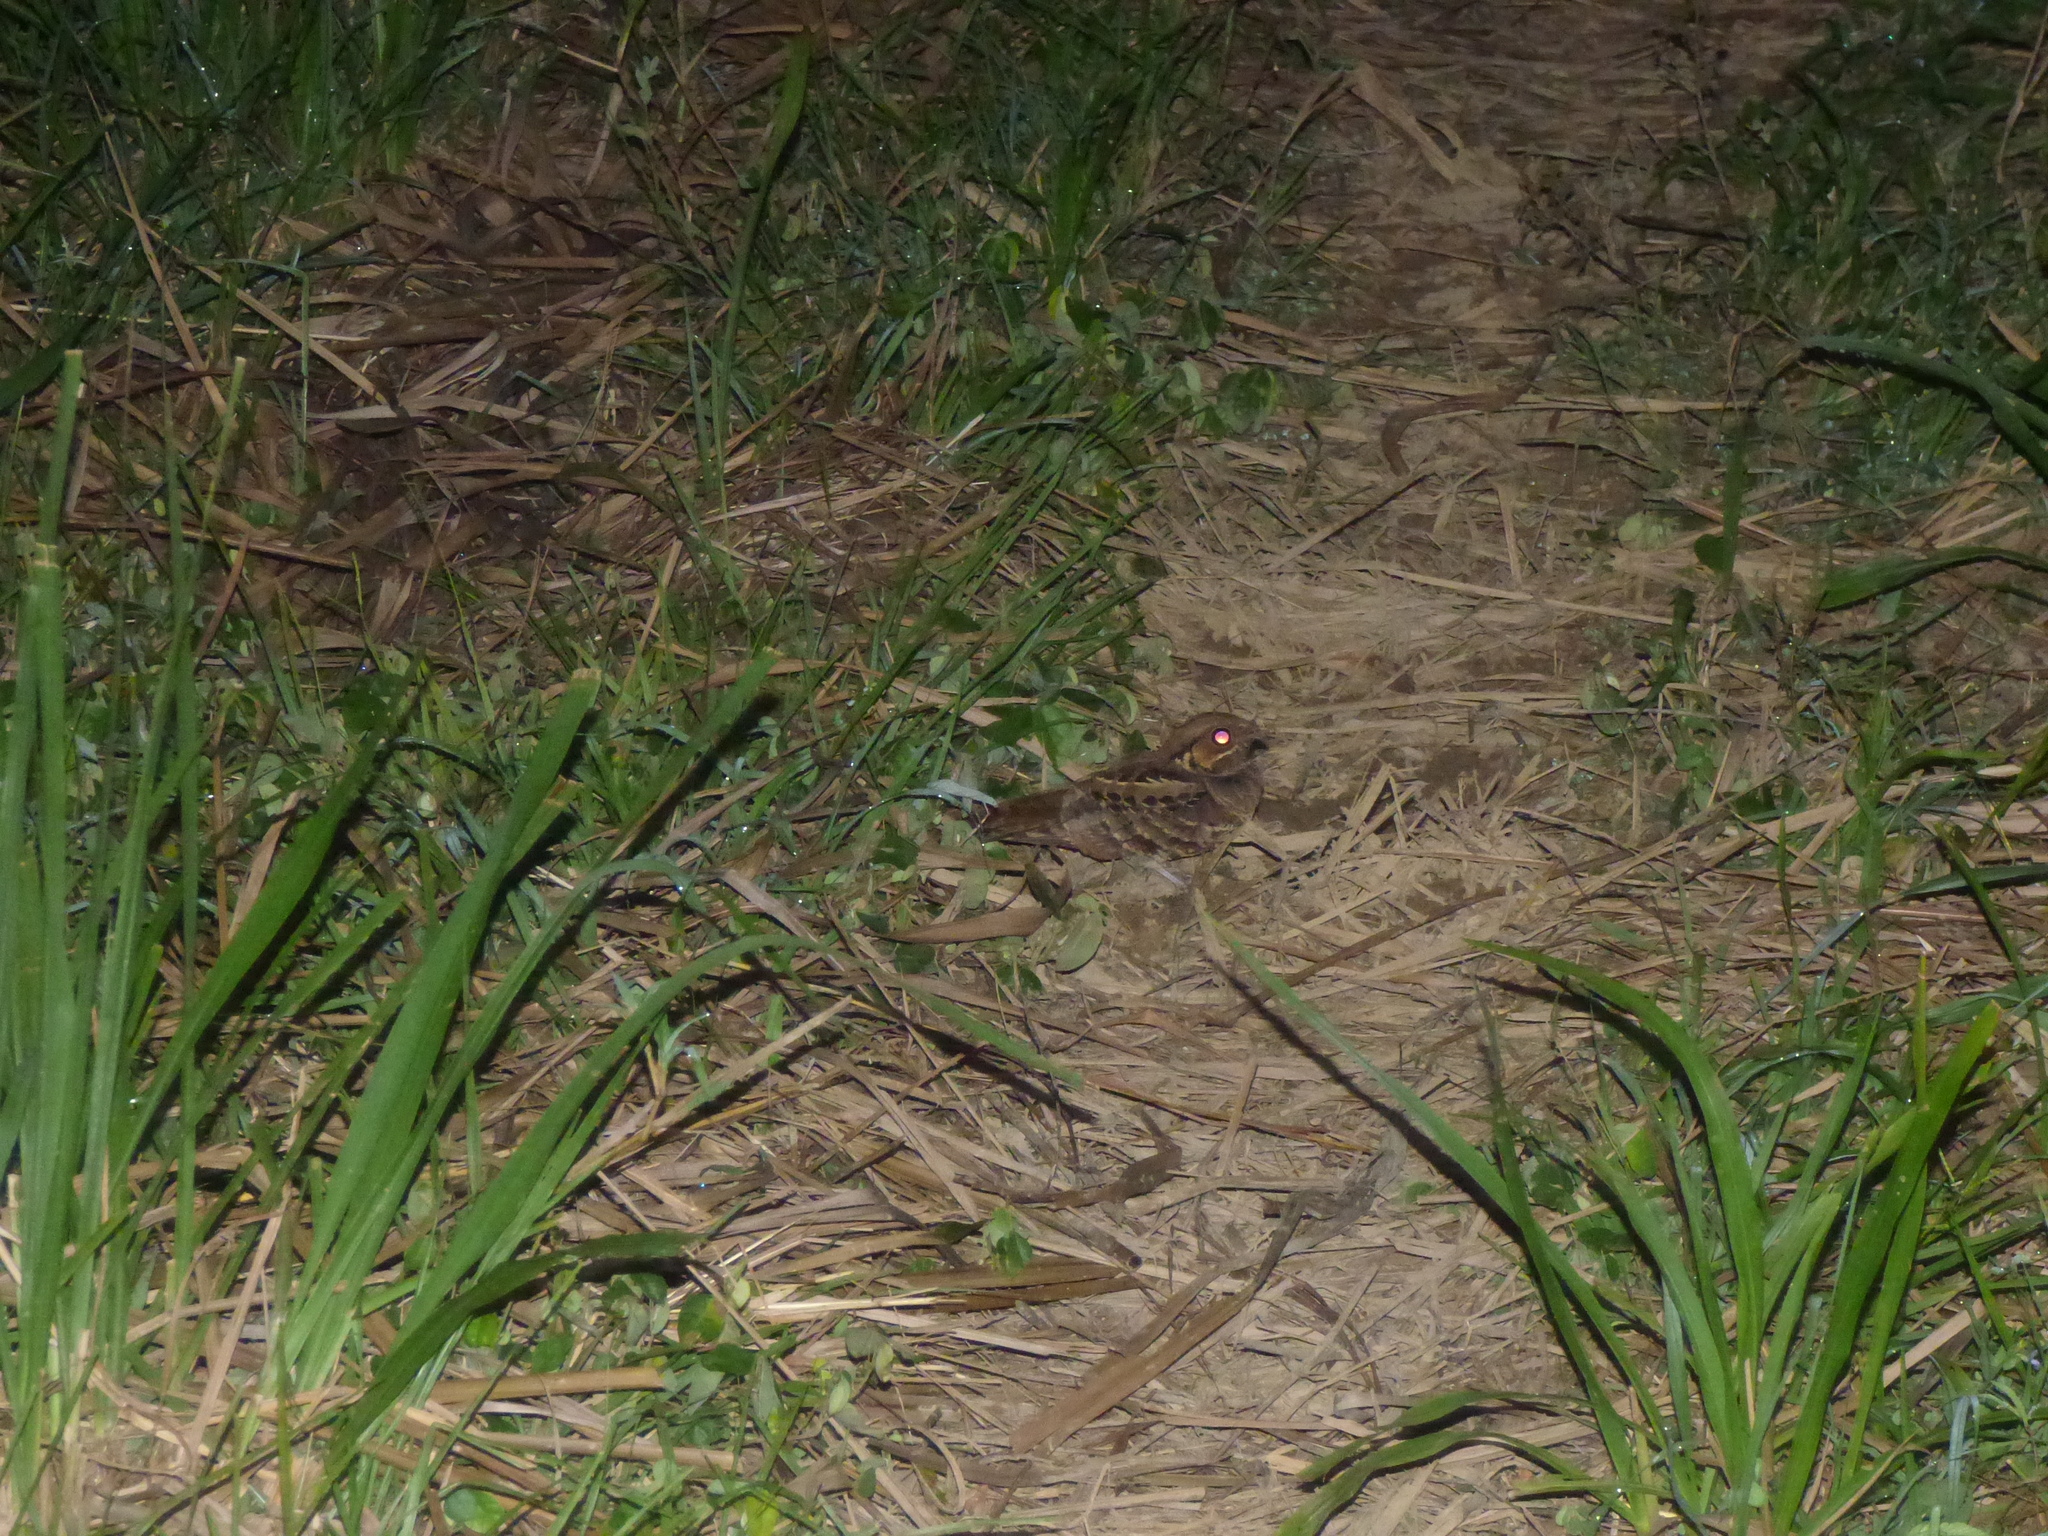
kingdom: Animalia
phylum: Chordata
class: Aves
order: Caprimulgiformes
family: Caprimulgidae
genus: Nyctidromus
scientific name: Nyctidromus albicollis
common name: Pauraque
